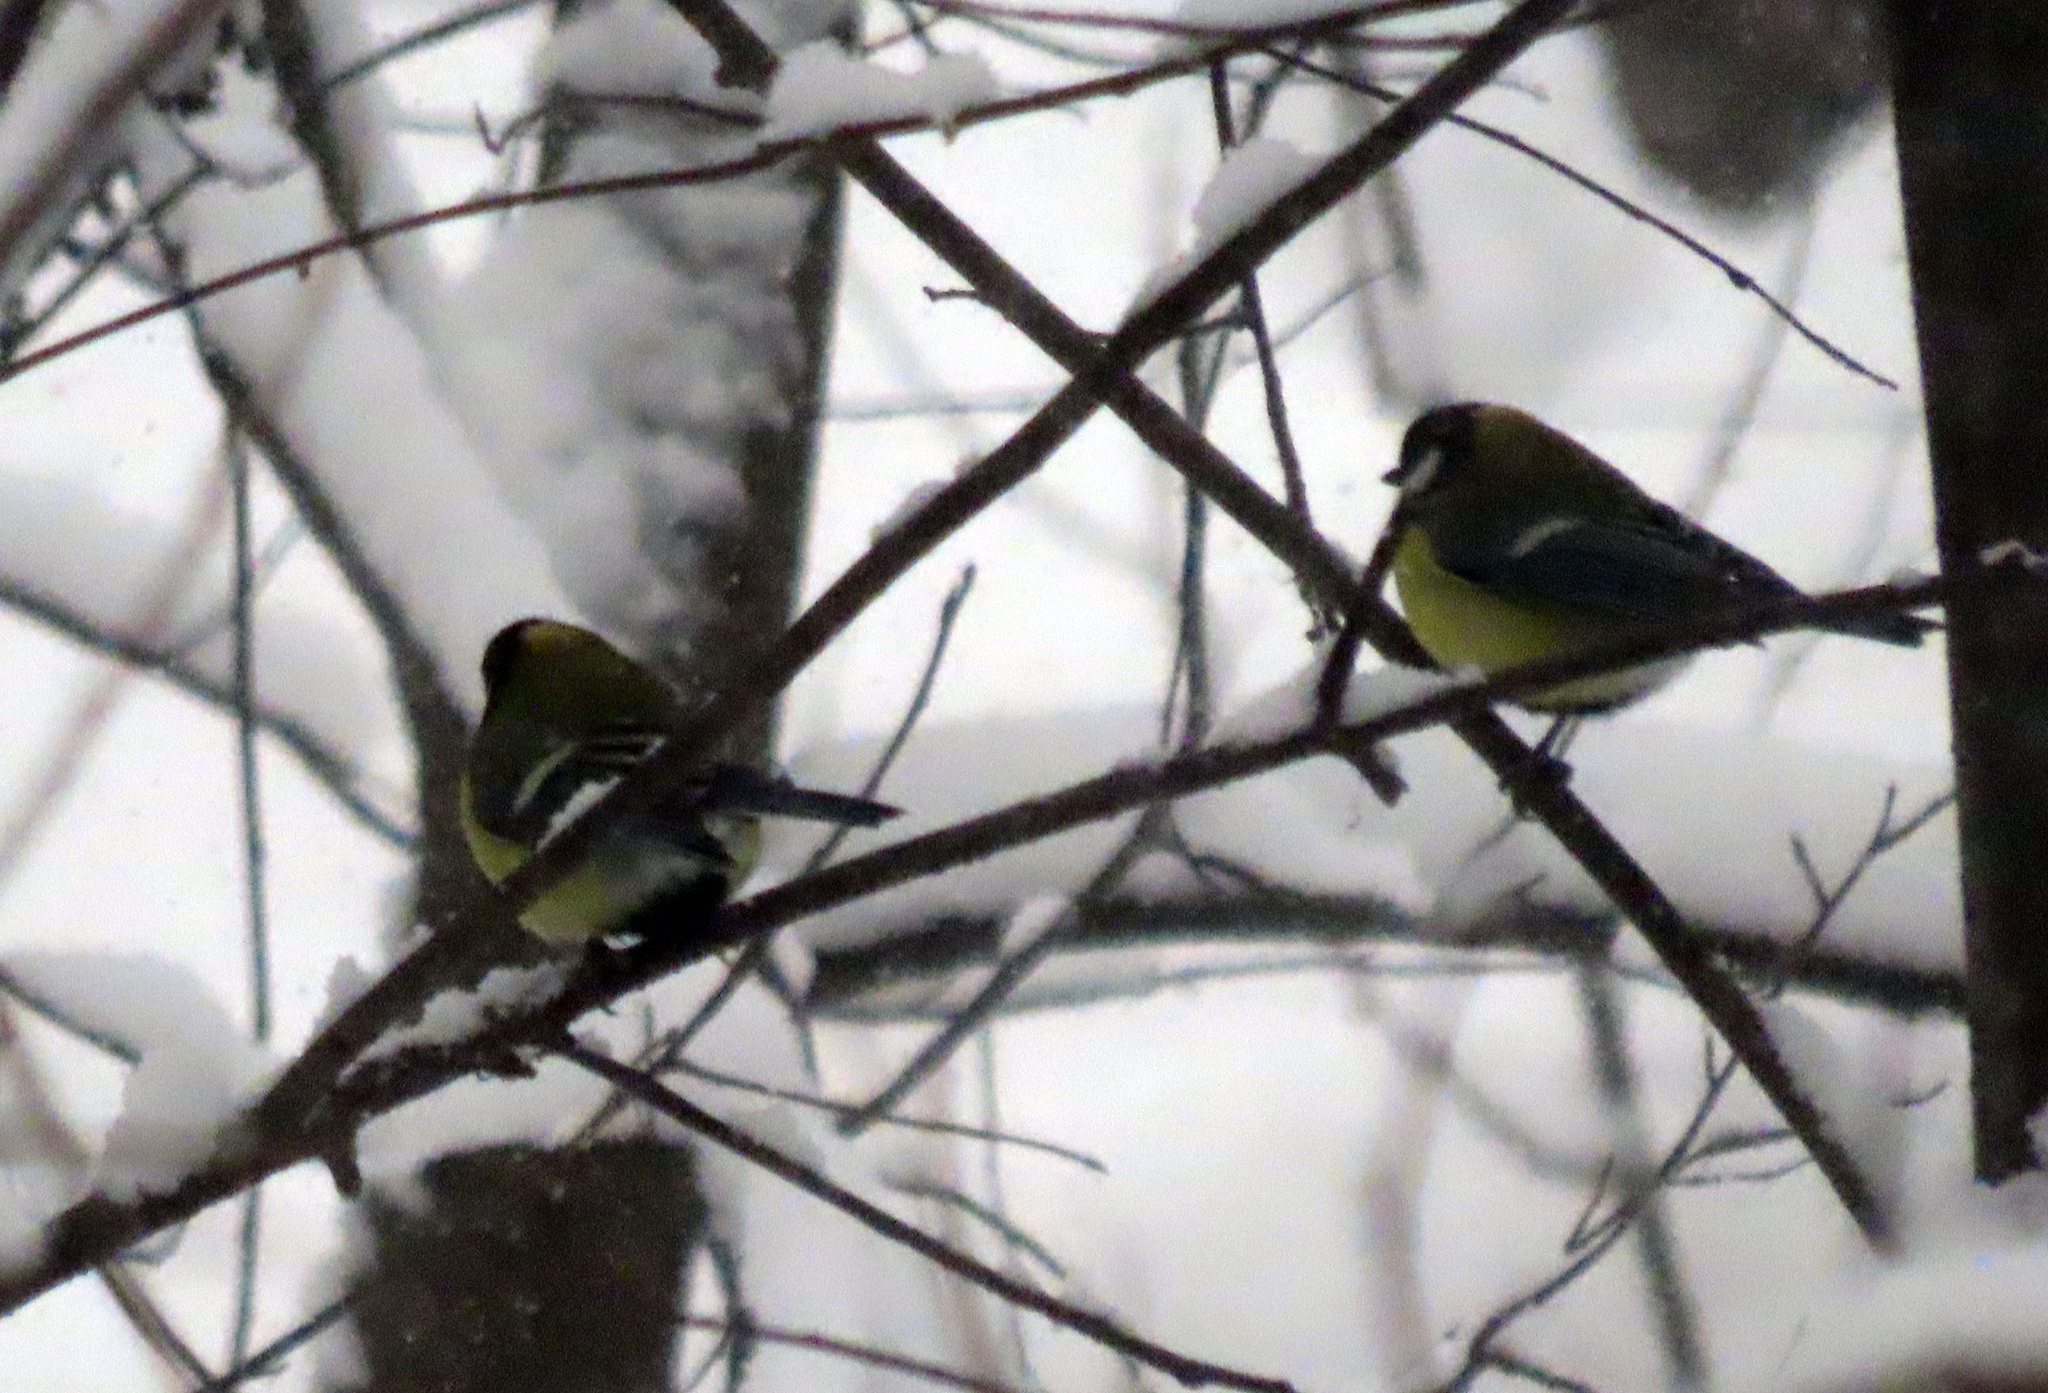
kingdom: Animalia
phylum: Chordata
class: Aves
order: Passeriformes
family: Paridae
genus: Parus
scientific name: Parus major
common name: Great tit
